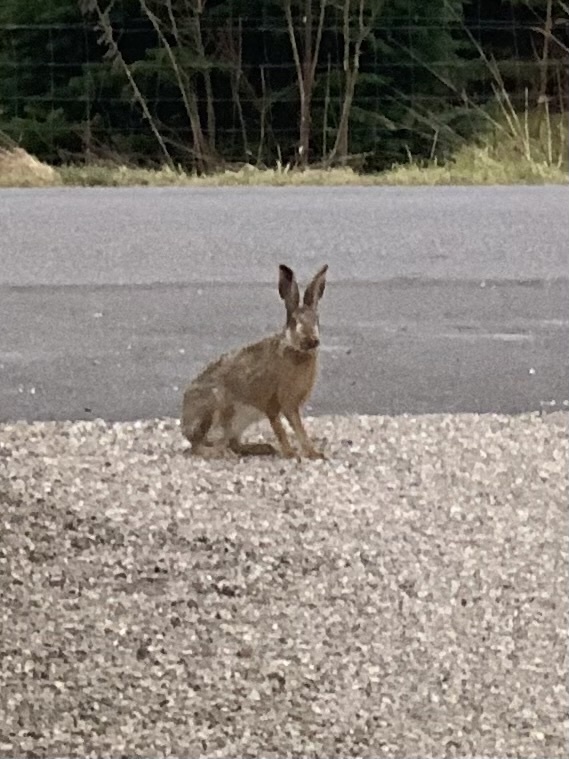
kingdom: Animalia
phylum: Chordata
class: Mammalia
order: Lagomorpha
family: Leporidae
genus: Lepus
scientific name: Lepus europaeus
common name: European hare
